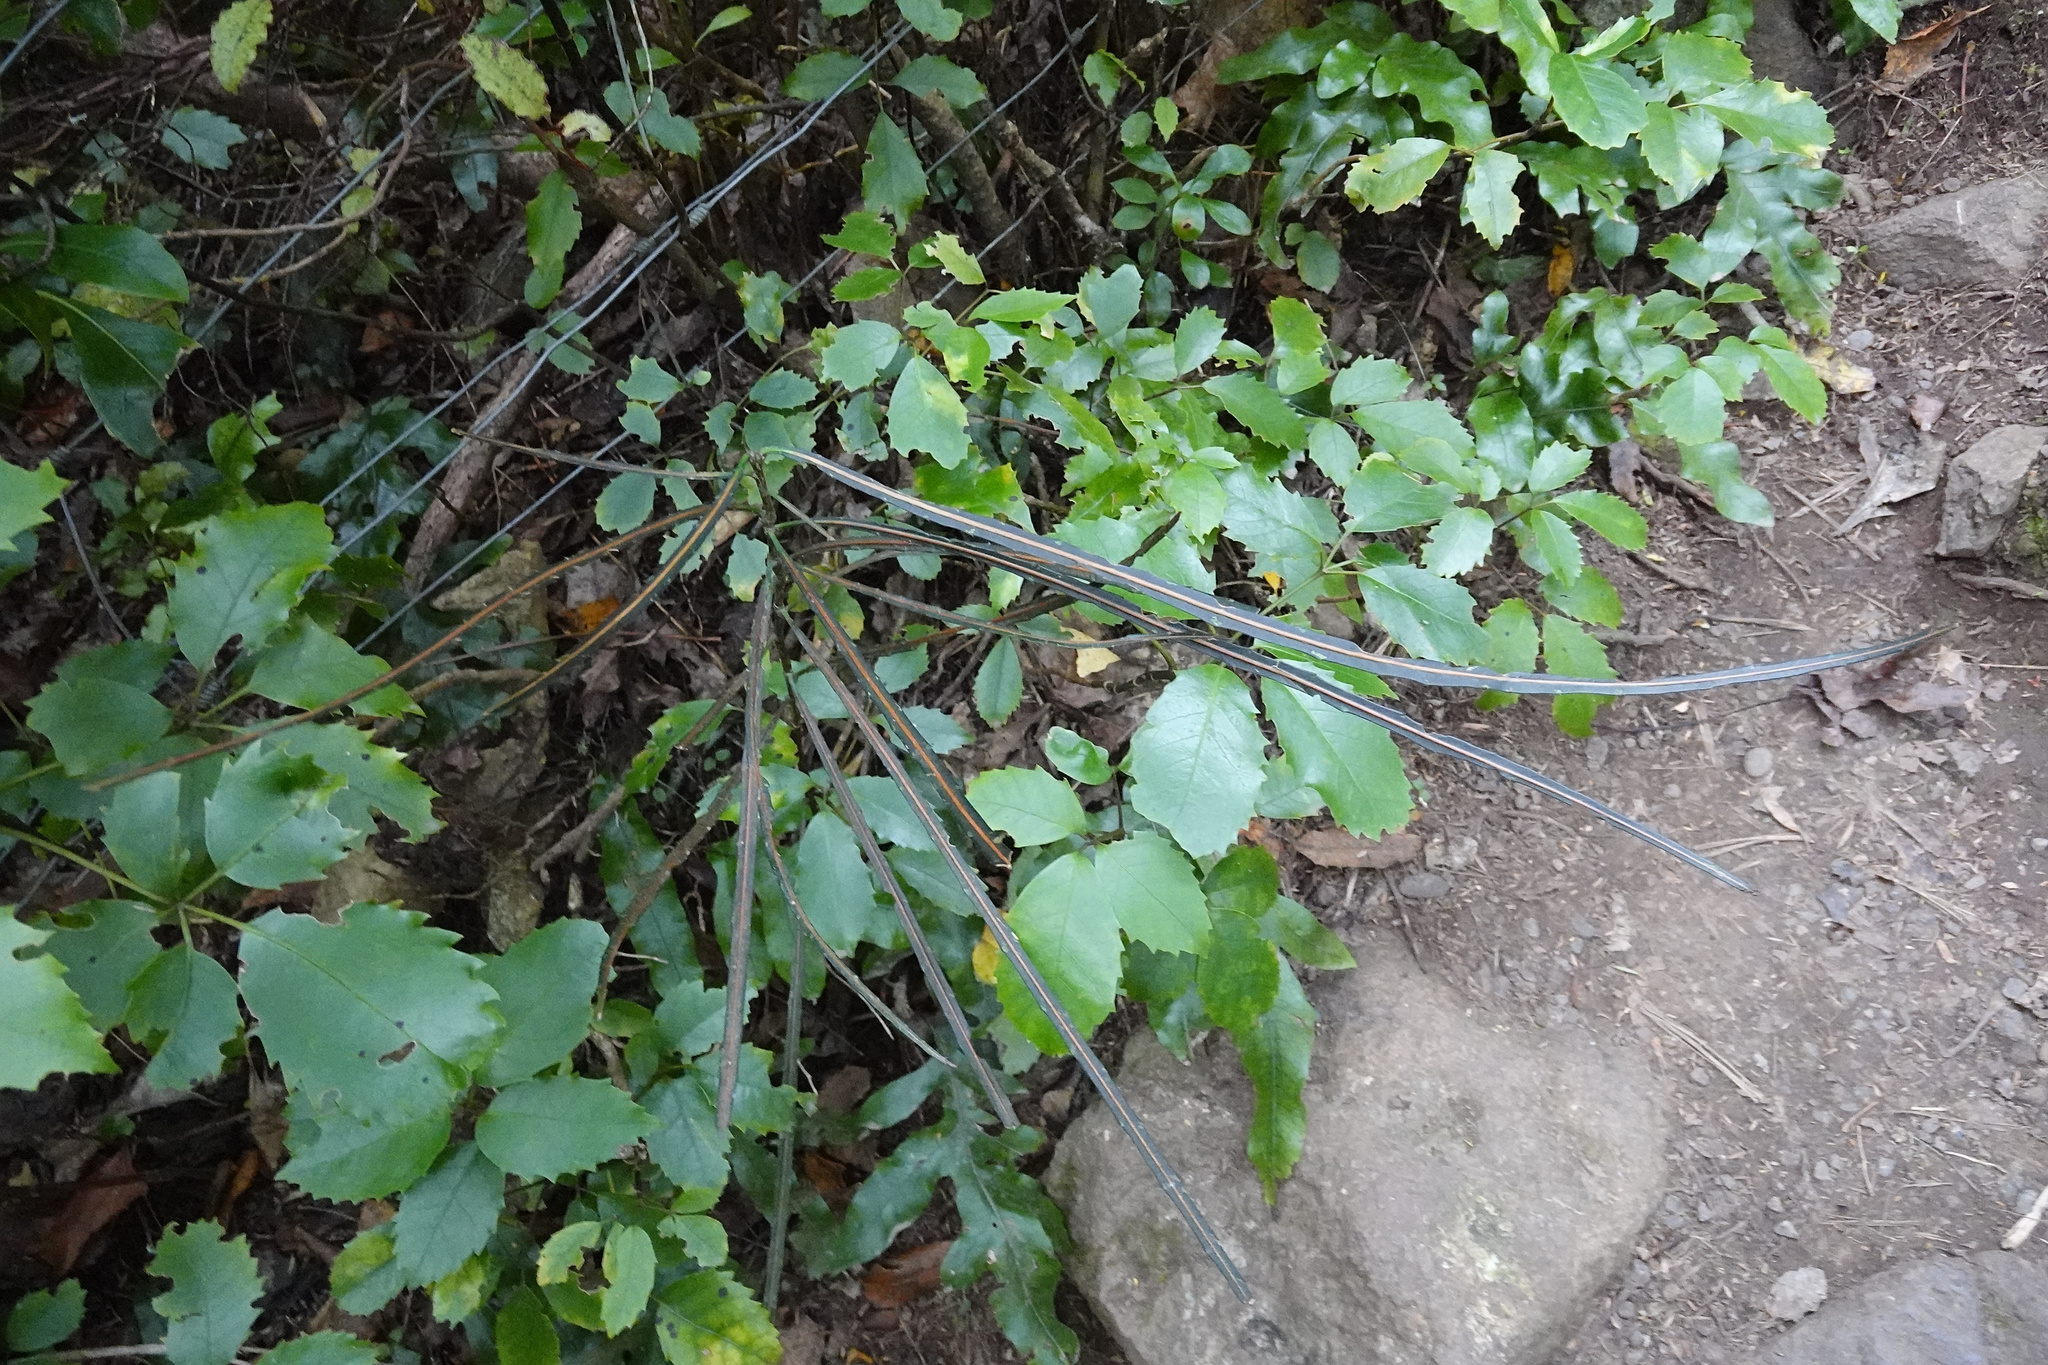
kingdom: Plantae
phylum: Tracheophyta
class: Magnoliopsida
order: Apiales
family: Araliaceae
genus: Pseudopanax
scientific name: Pseudopanax crassifolius
